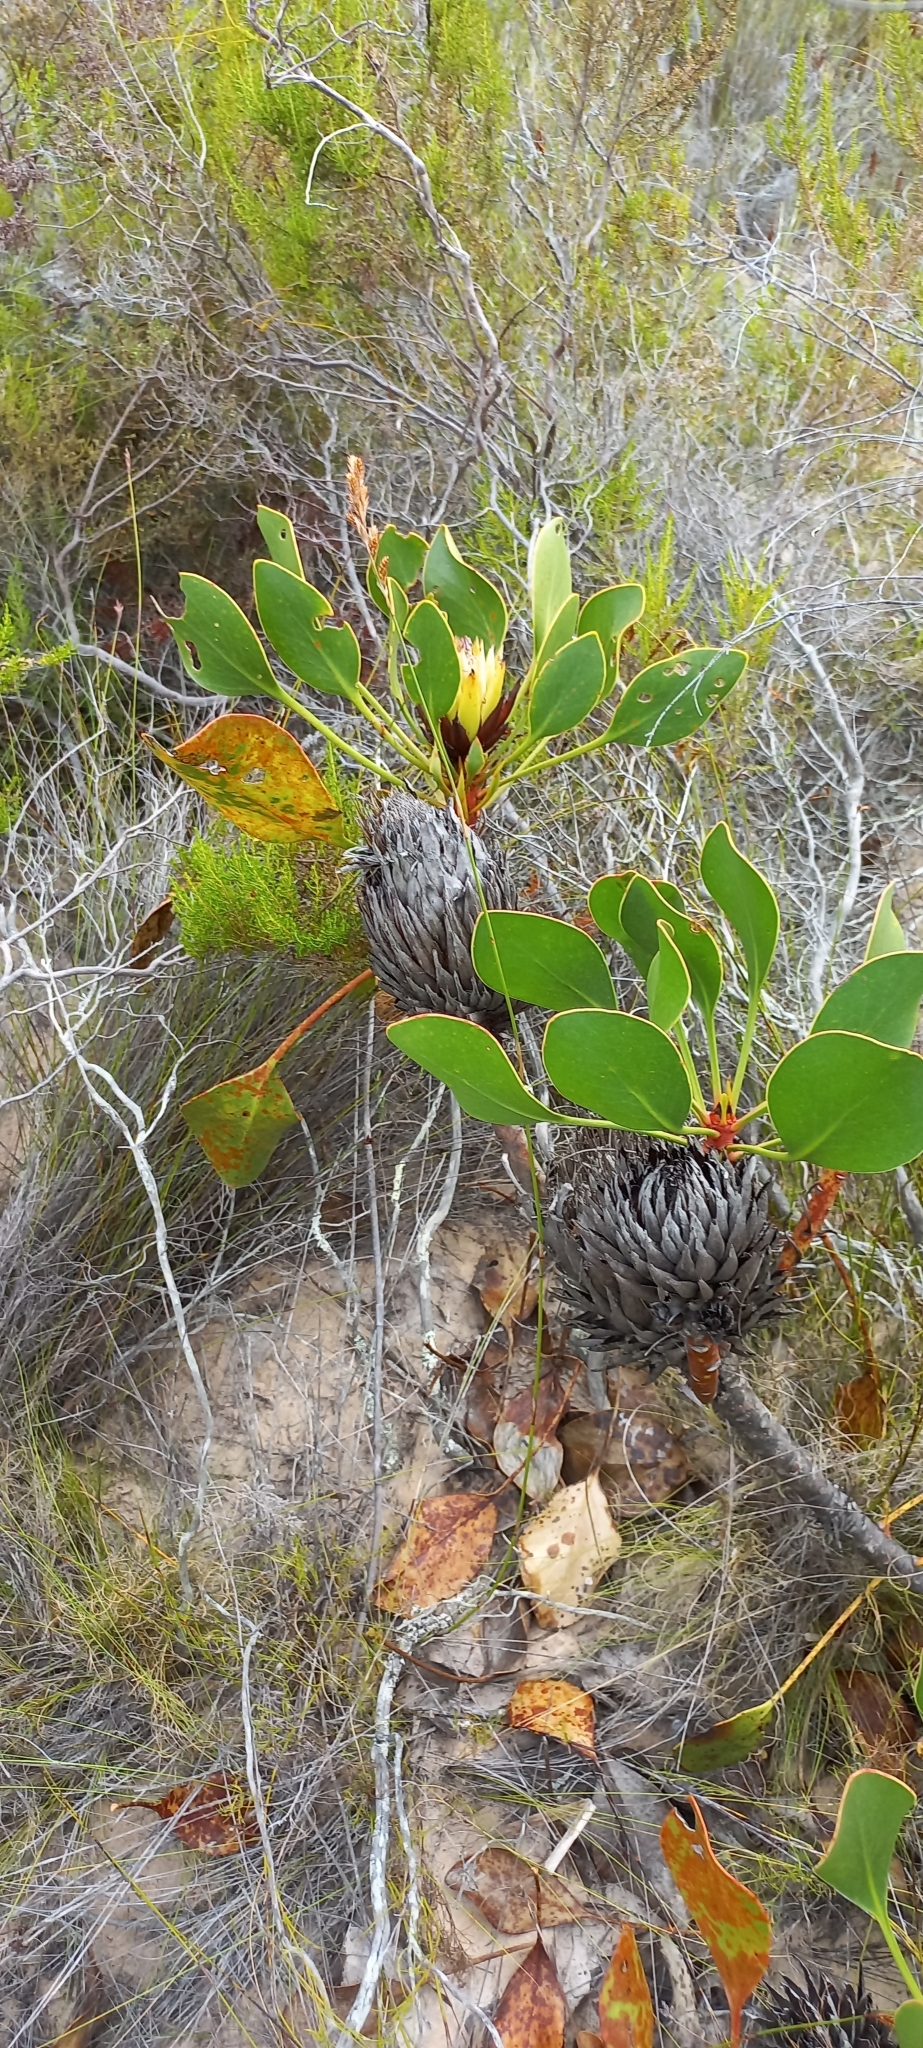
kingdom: Plantae
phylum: Tracheophyta
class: Magnoliopsida
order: Proteales
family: Proteaceae
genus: Protea
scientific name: Protea cynaroides
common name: King protea
